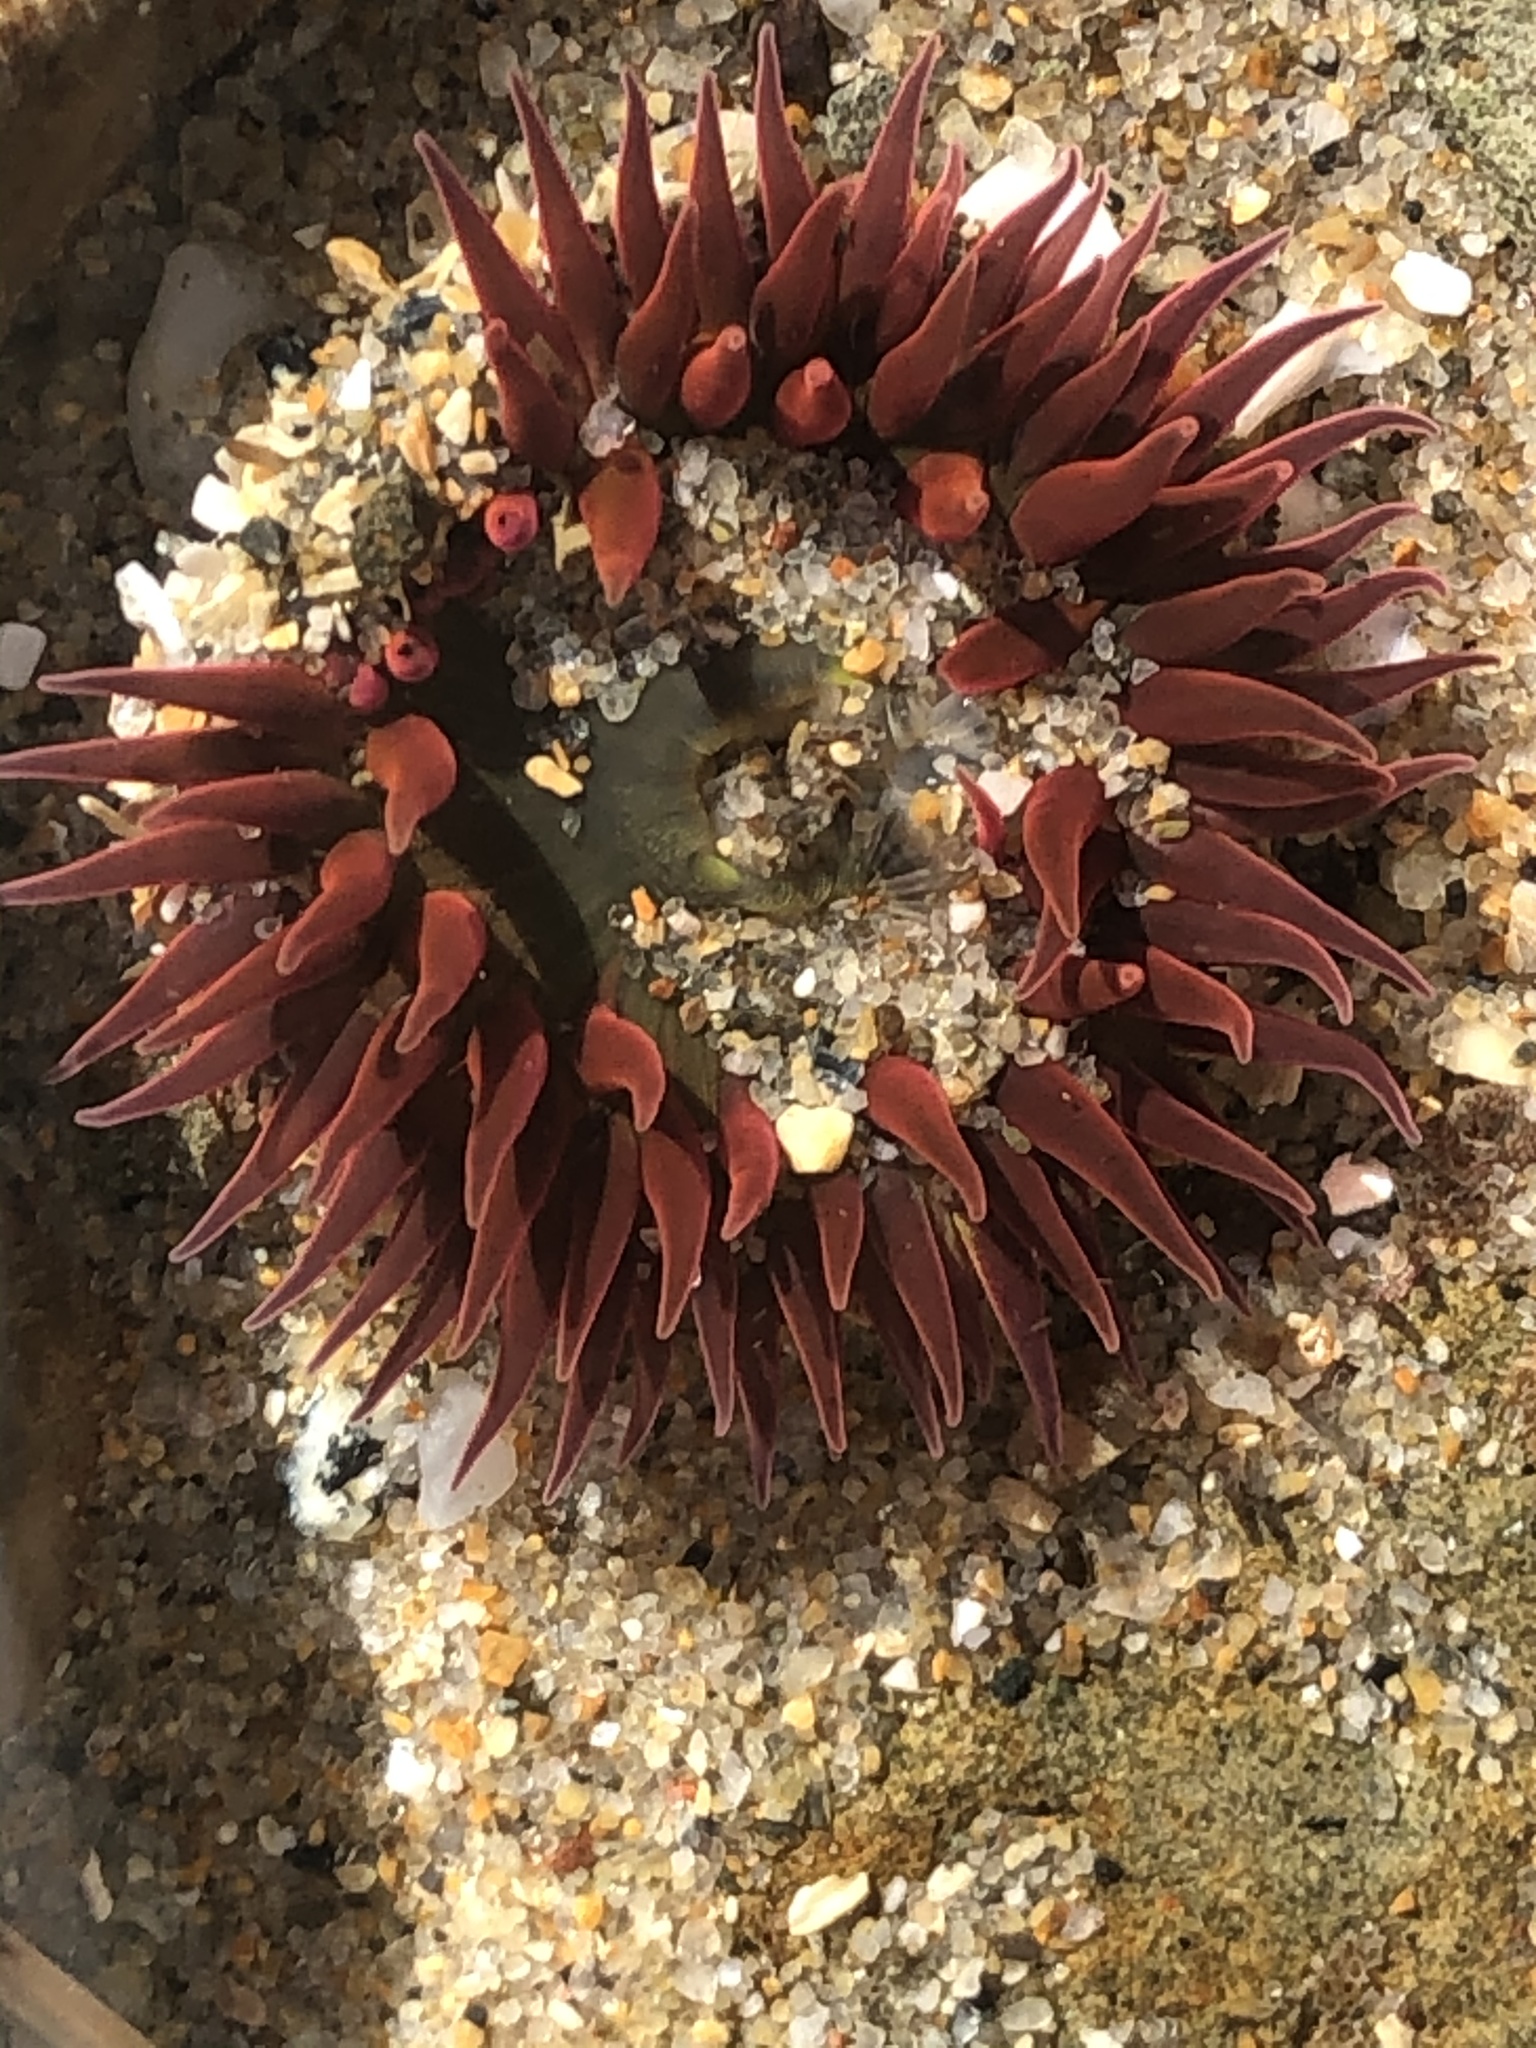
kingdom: Animalia
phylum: Cnidaria
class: Anthozoa
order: Actiniaria
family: Actiniidae
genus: Anthopleura
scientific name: Anthopleura artemisia
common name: Buried sea anemone
